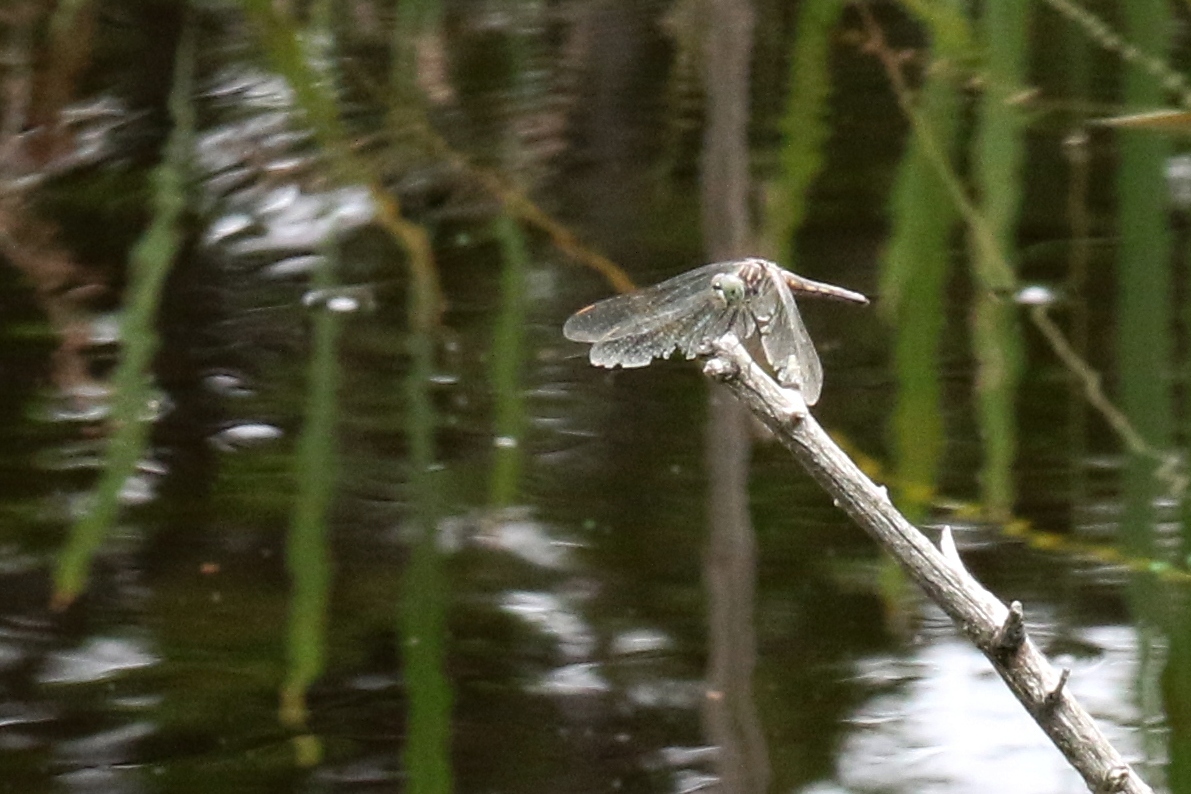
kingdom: Animalia
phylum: Arthropoda
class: Insecta
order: Odonata
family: Libellulidae
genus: Pachydiplax
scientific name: Pachydiplax longipennis
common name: Blue dasher
